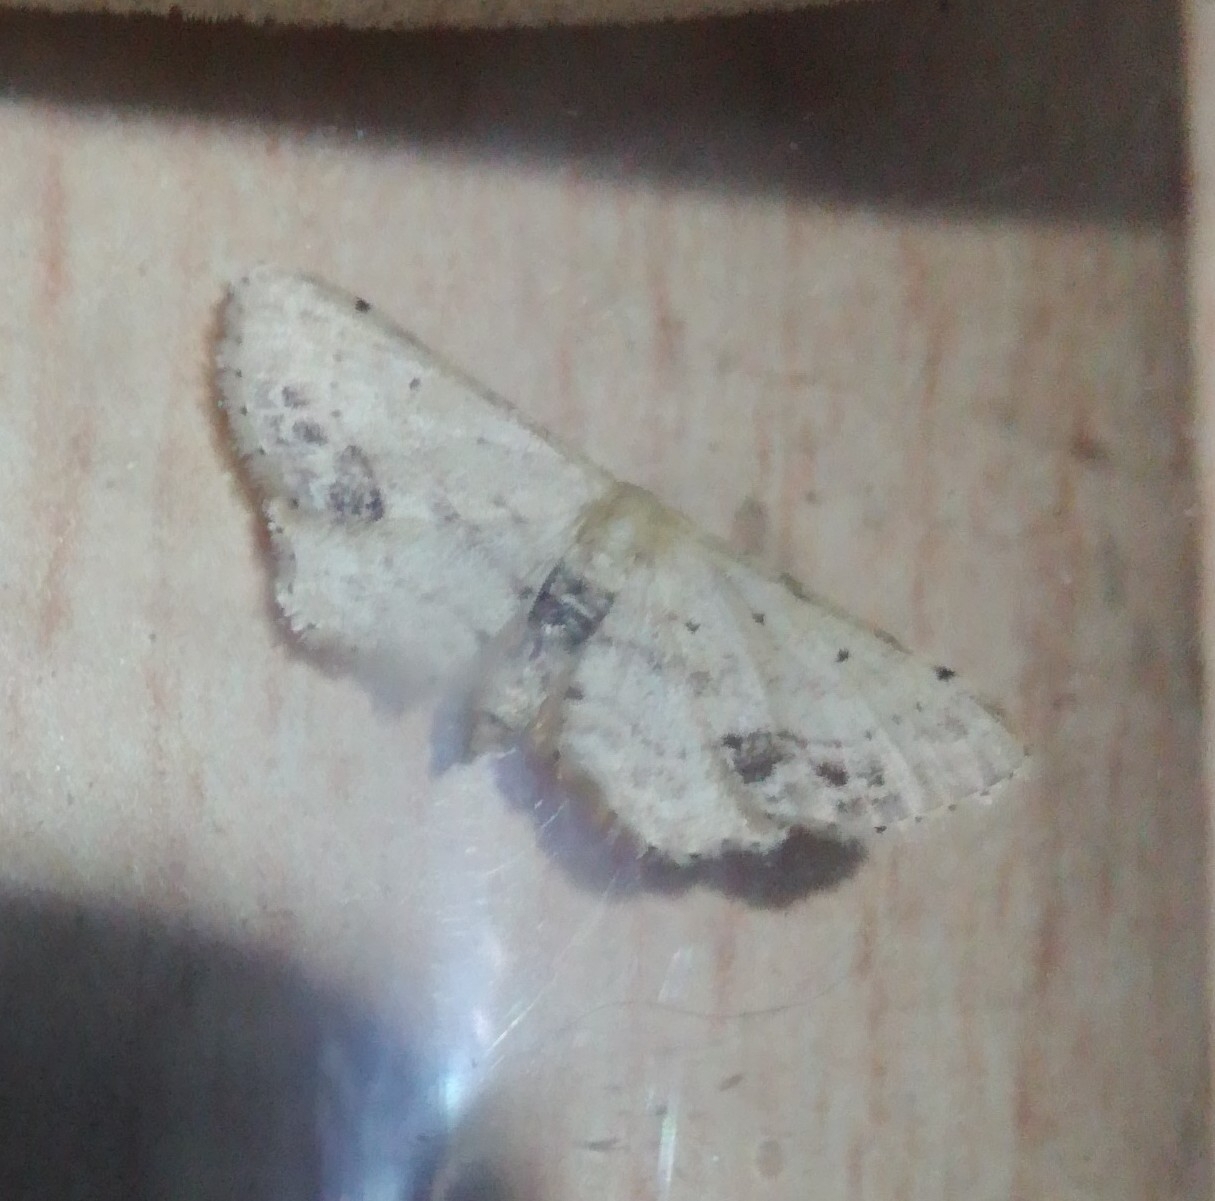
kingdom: Animalia
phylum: Arthropoda
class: Insecta
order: Lepidoptera
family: Geometridae
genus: Idaea
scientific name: Idaea dimidiata
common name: Single-dotted wave
